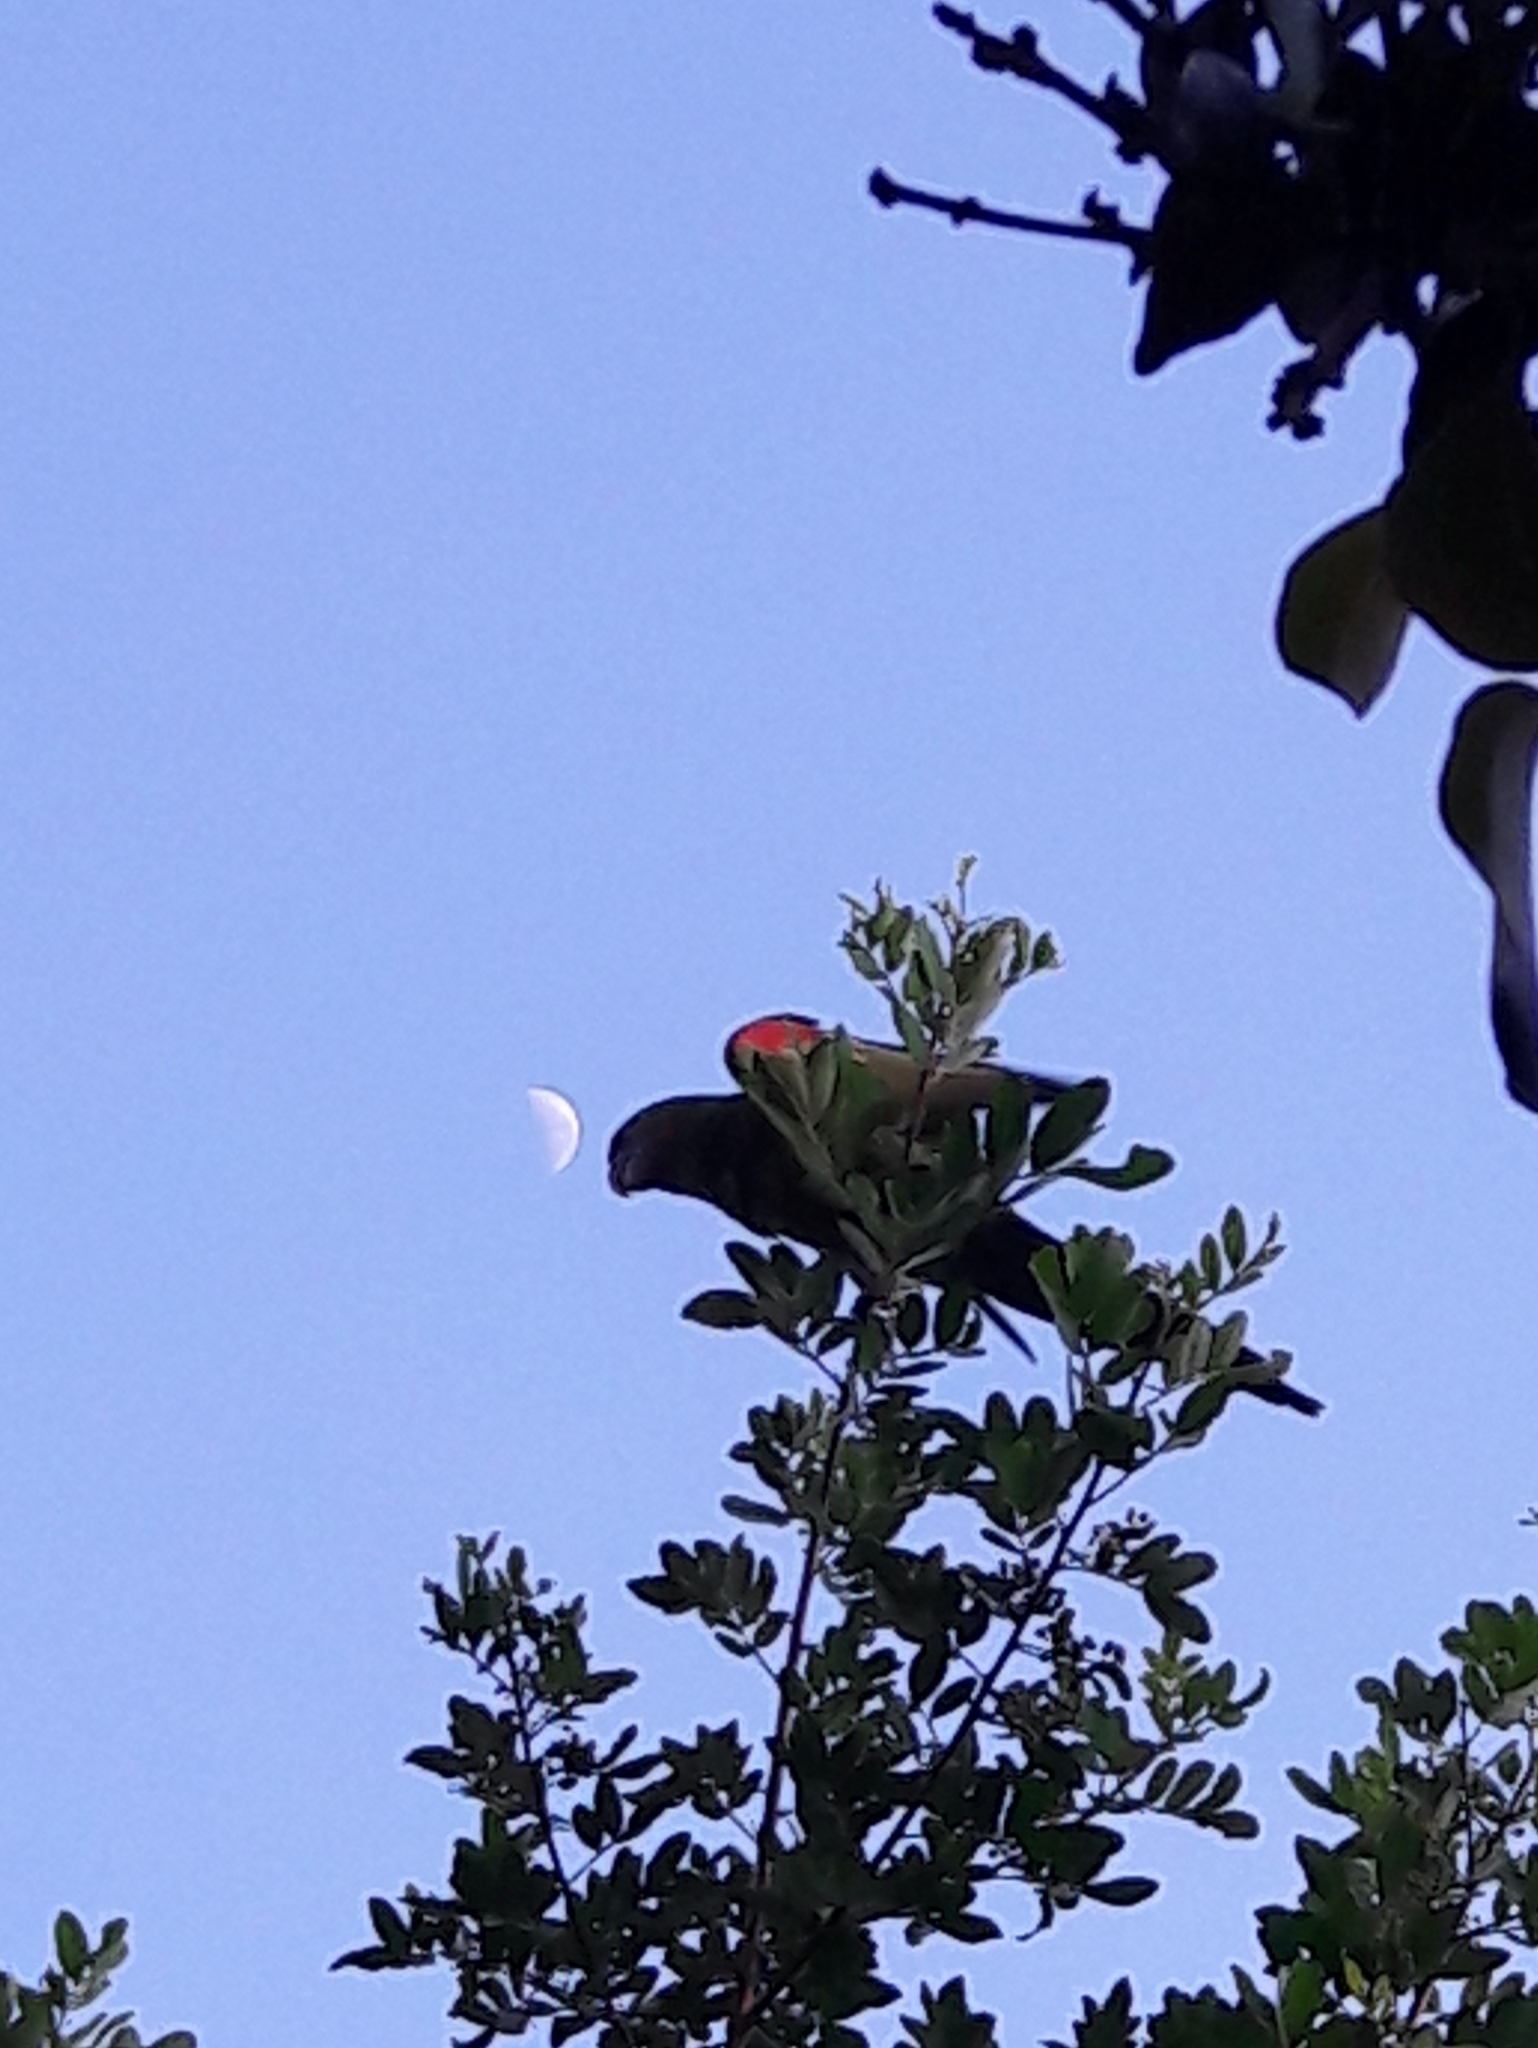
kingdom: Animalia
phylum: Chordata
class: Aves
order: Psittaciformes
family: Psittacidae
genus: Aratinga
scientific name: Aratinga leucophthalma
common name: White-eyed parakeet
